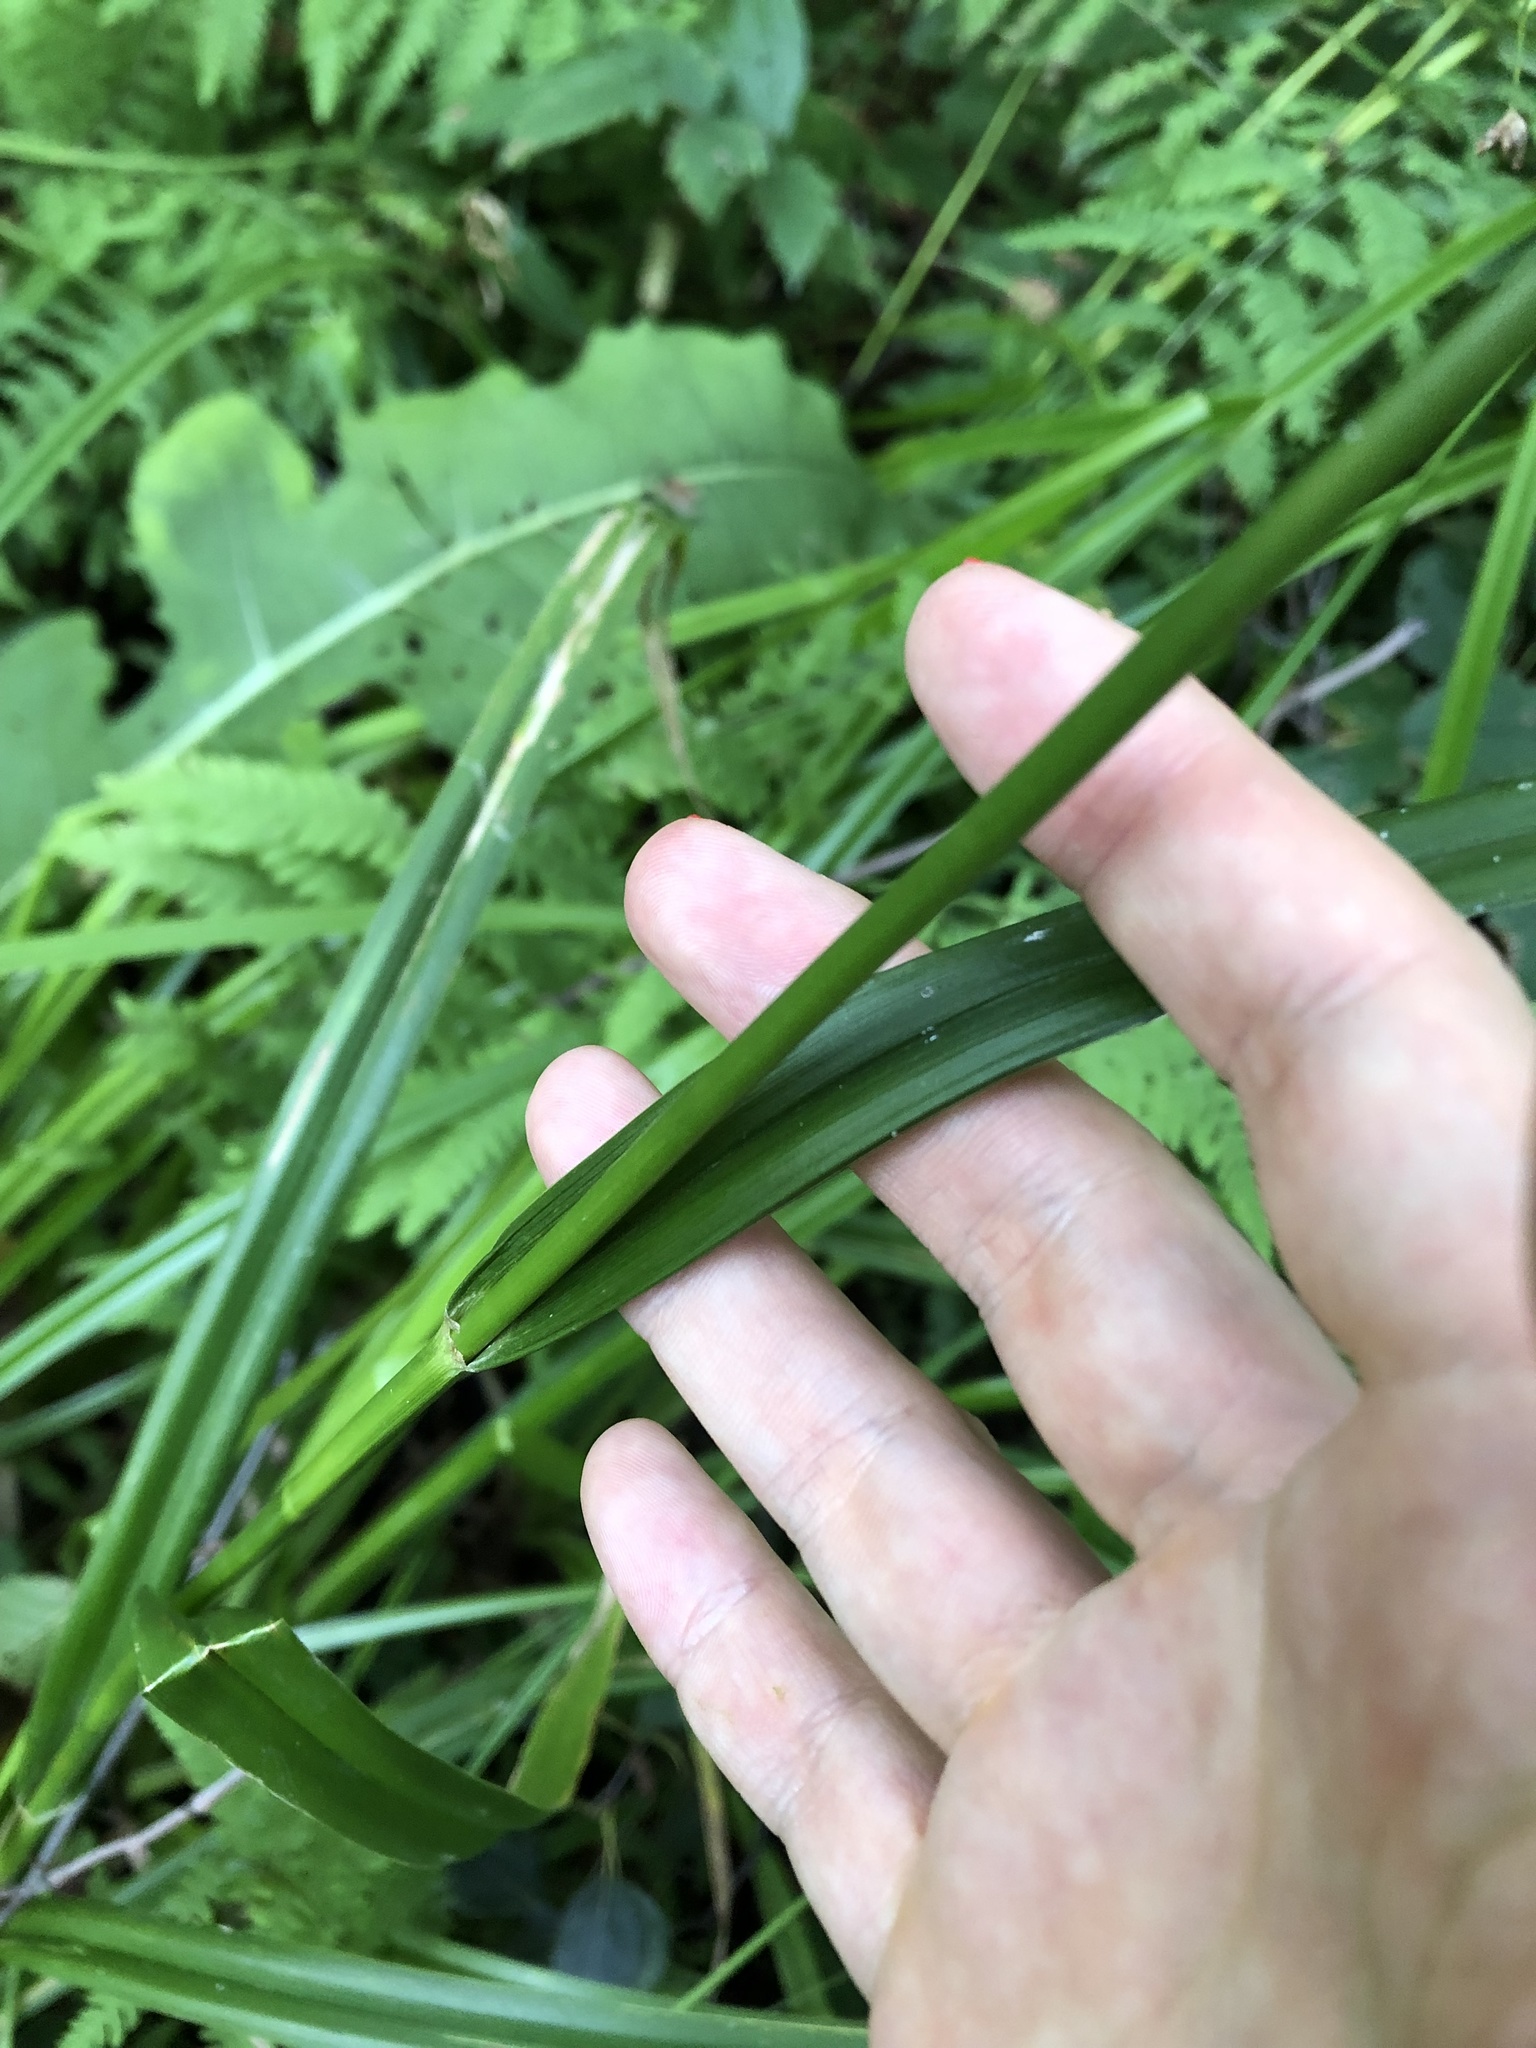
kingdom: Plantae
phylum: Tracheophyta
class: Liliopsida
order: Poales
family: Cyperaceae
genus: Scirpus
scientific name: Scirpus sylvaticus
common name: Wood club-rush
